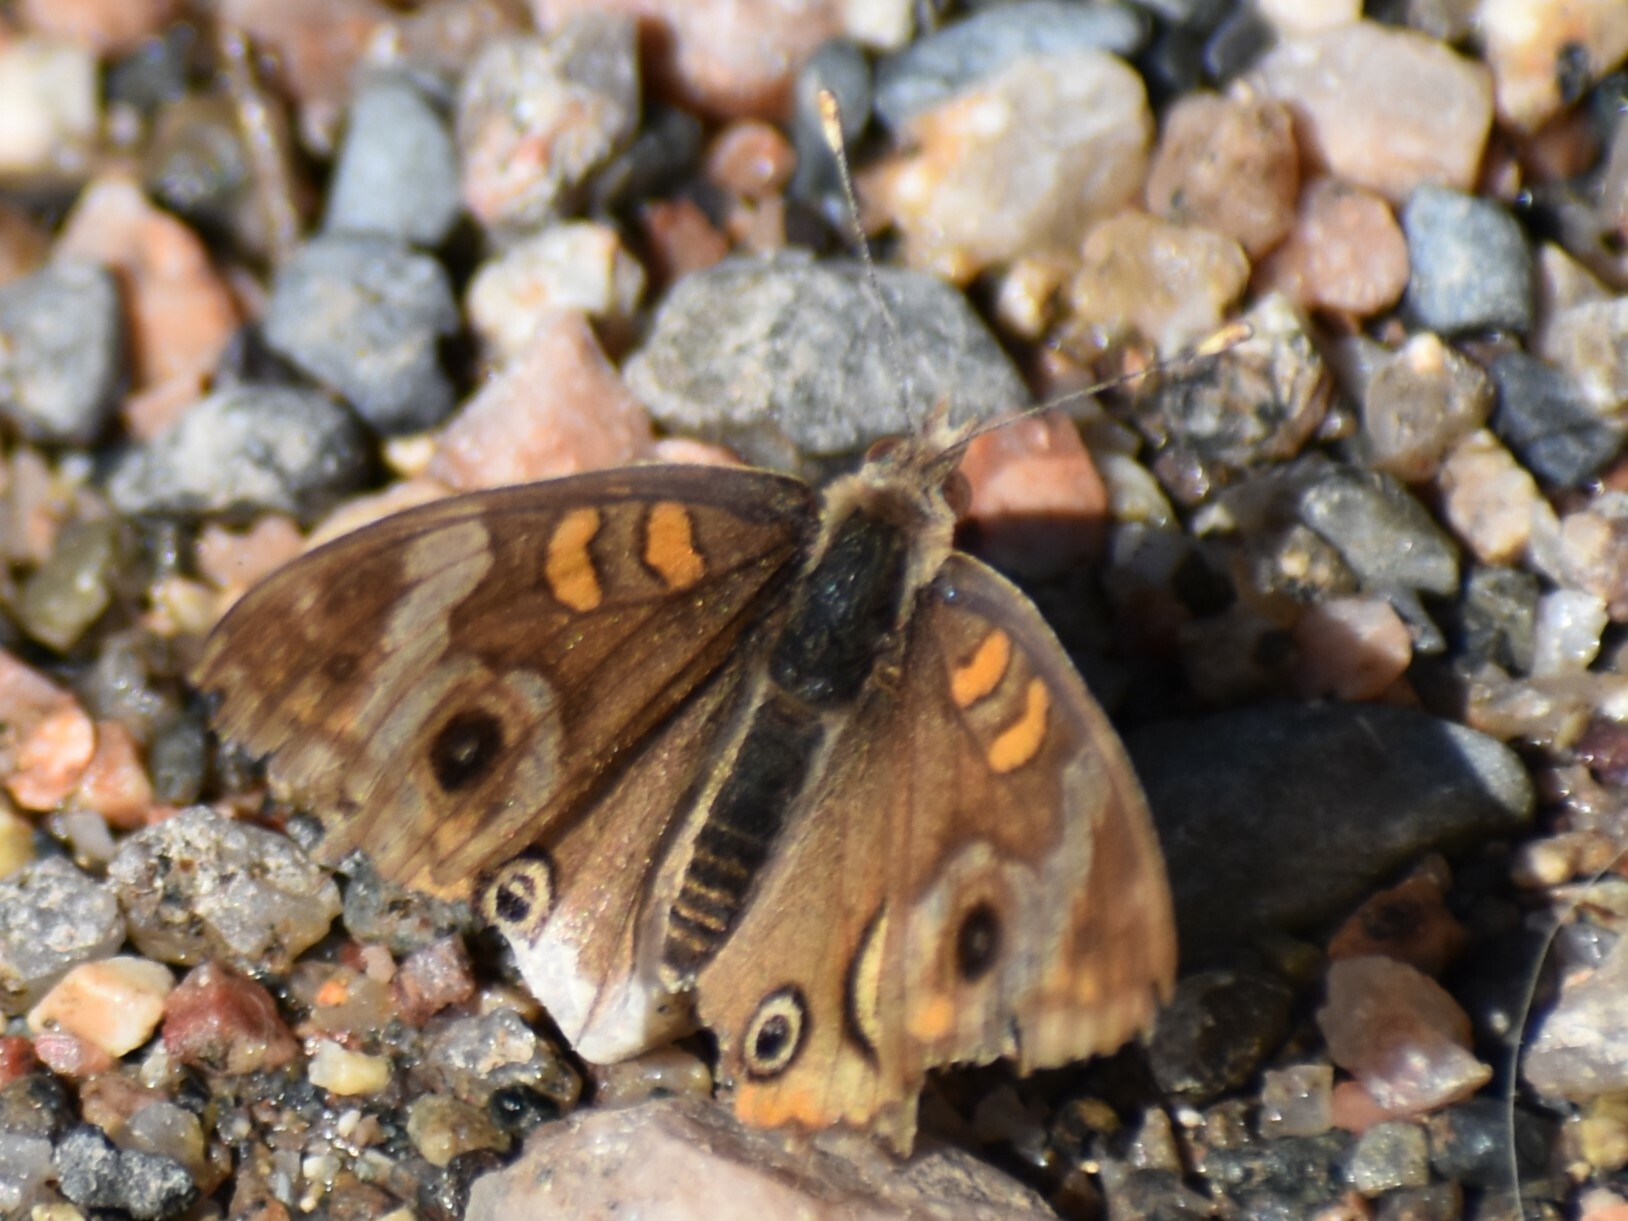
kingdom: Animalia
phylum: Arthropoda
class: Insecta
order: Lepidoptera
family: Nymphalidae
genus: Junonia
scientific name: Junonia grisea
